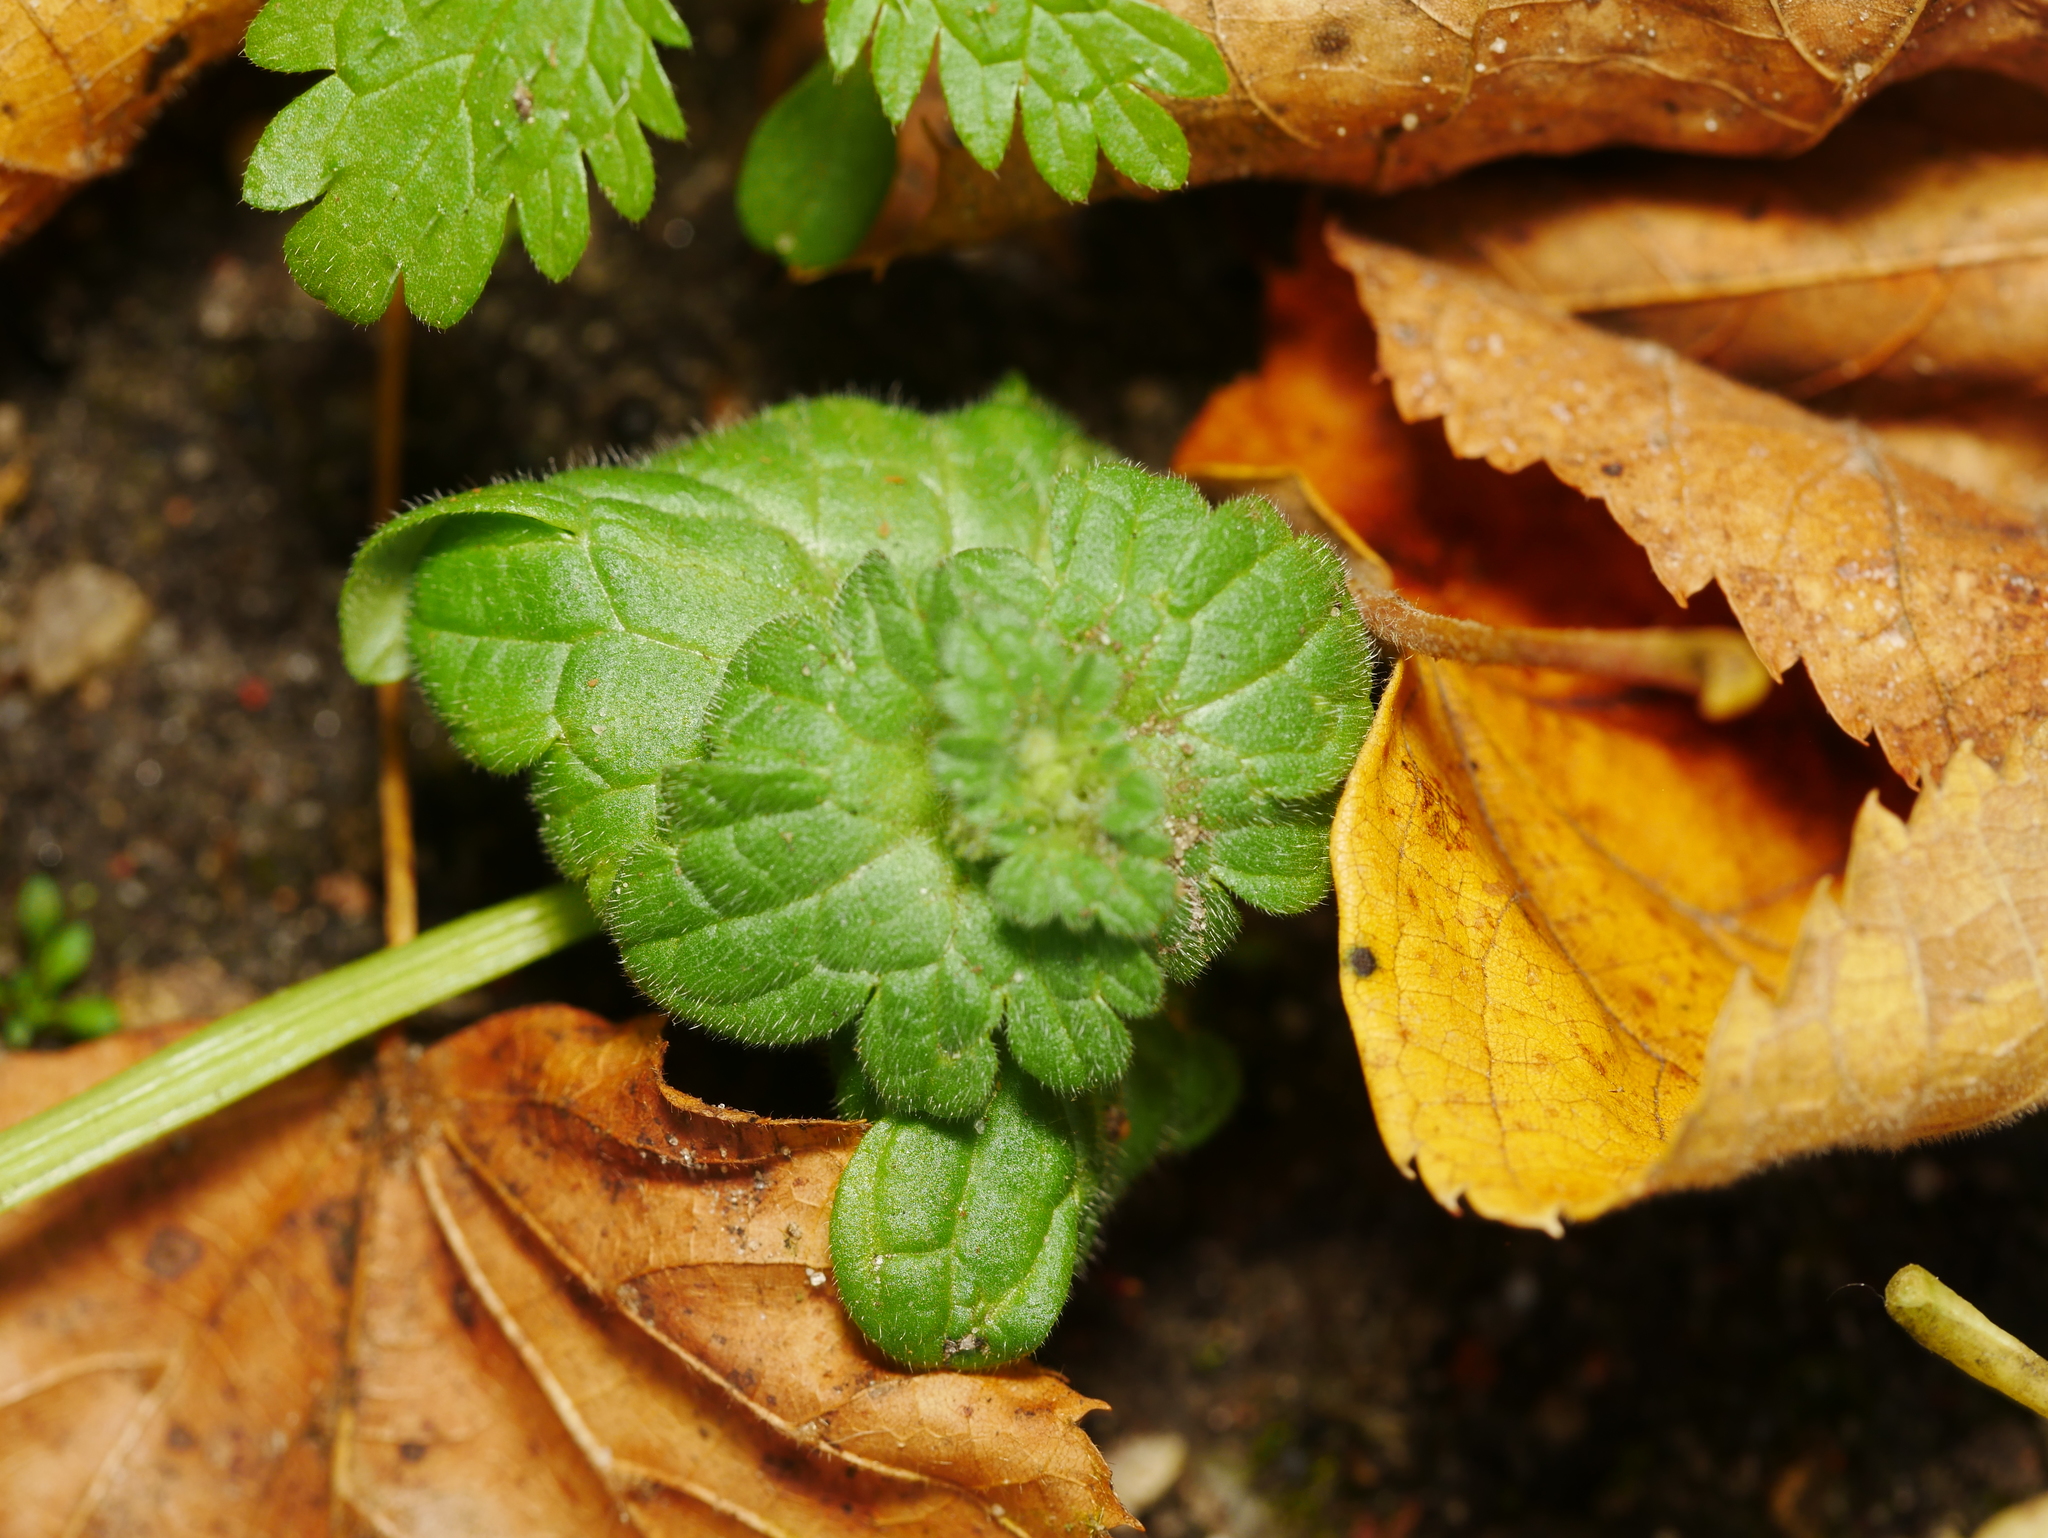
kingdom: Plantae
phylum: Tracheophyta
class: Magnoliopsida
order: Lamiales
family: Lamiaceae
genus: Lamium
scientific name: Lamium amplexicaule
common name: Henbit dead-nettle
